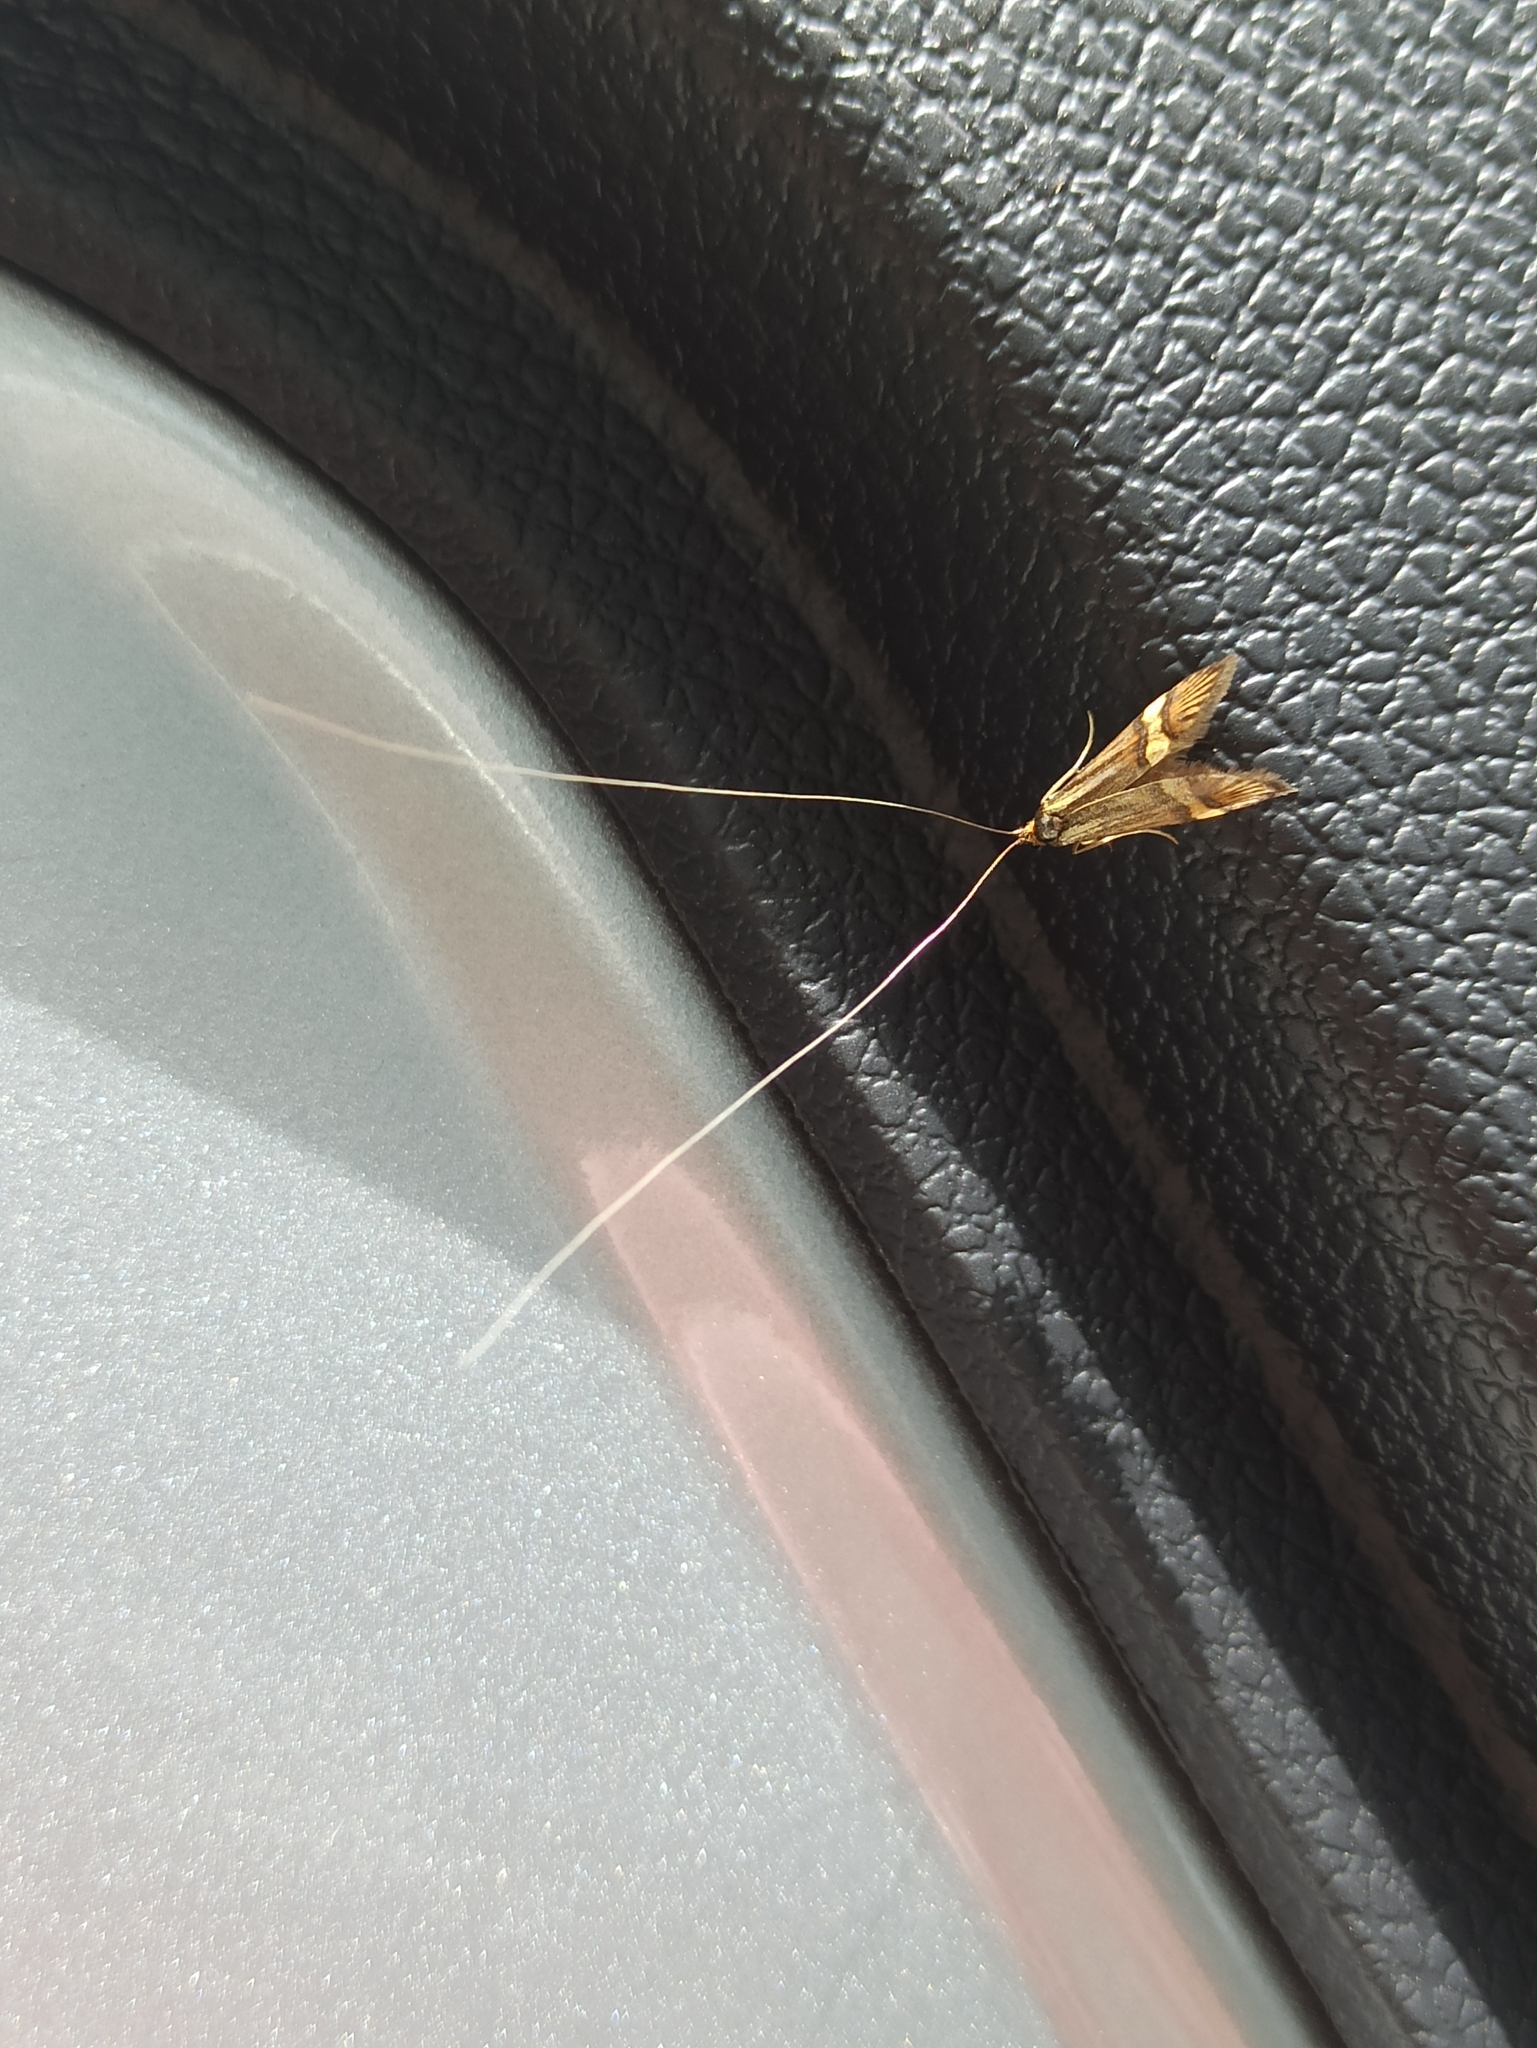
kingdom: Animalia
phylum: Arthropoda
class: Insecta
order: Lepidoptera
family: Adelidae
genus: Nemophora
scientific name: Nemophora degeerella
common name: Yellow-barred long-horn
